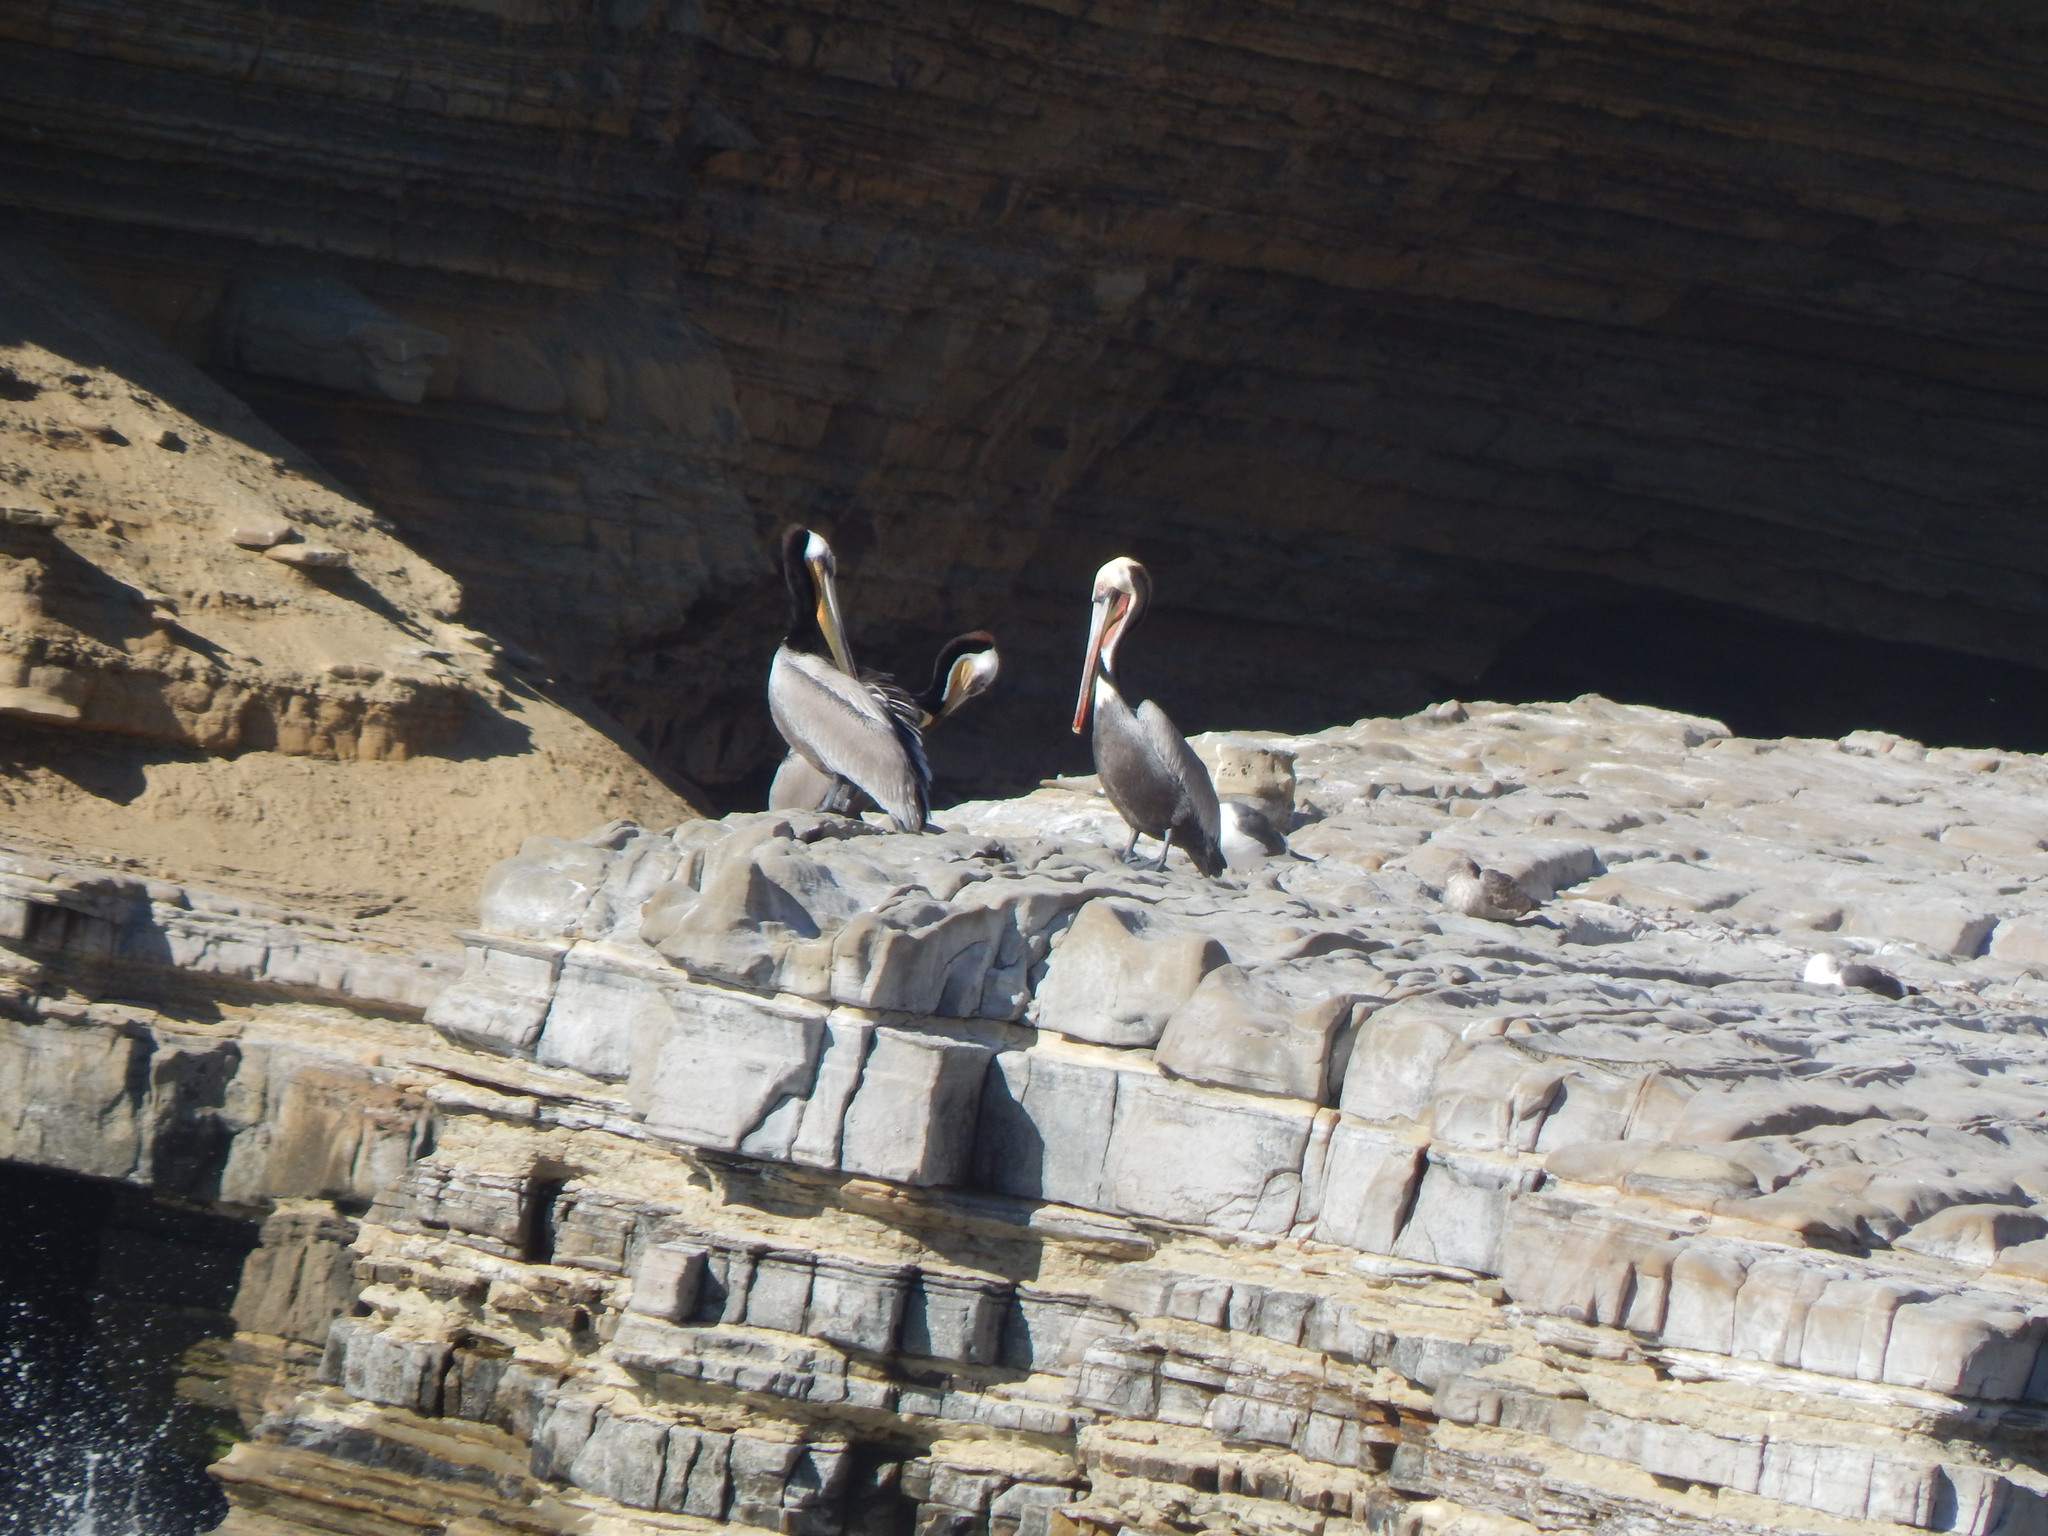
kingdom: Animalia
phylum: Chordata
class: Aves
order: Pelecaniformes
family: Pelecanidae
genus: Pelecanus
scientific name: Pelecanus occidentalis
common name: Brown pelican
